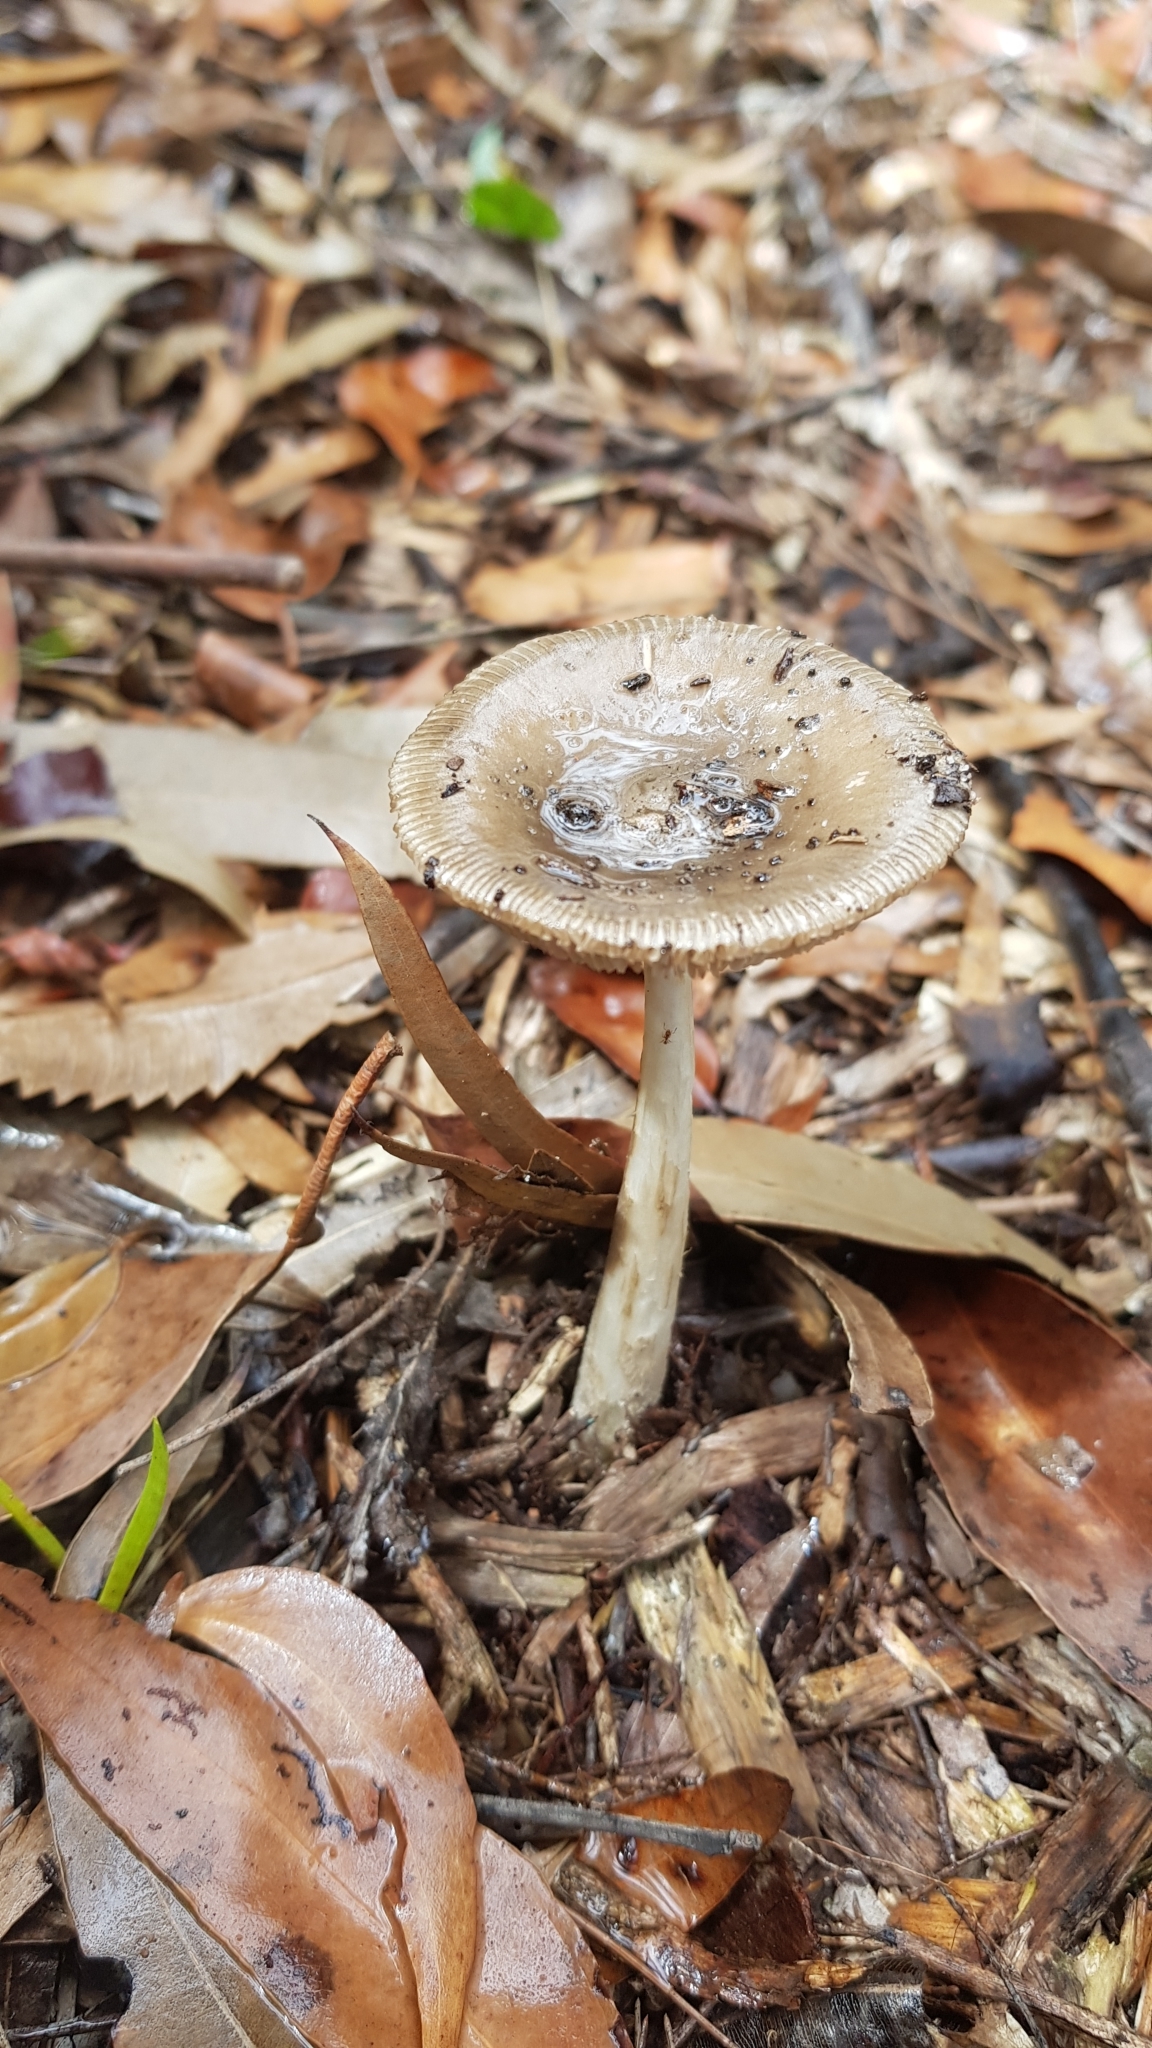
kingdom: Fungi
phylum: Basidiomycota
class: Agaricomycetes
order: Agaricales
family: Amanitaceae
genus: Amanita
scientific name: Amanita cheelii
